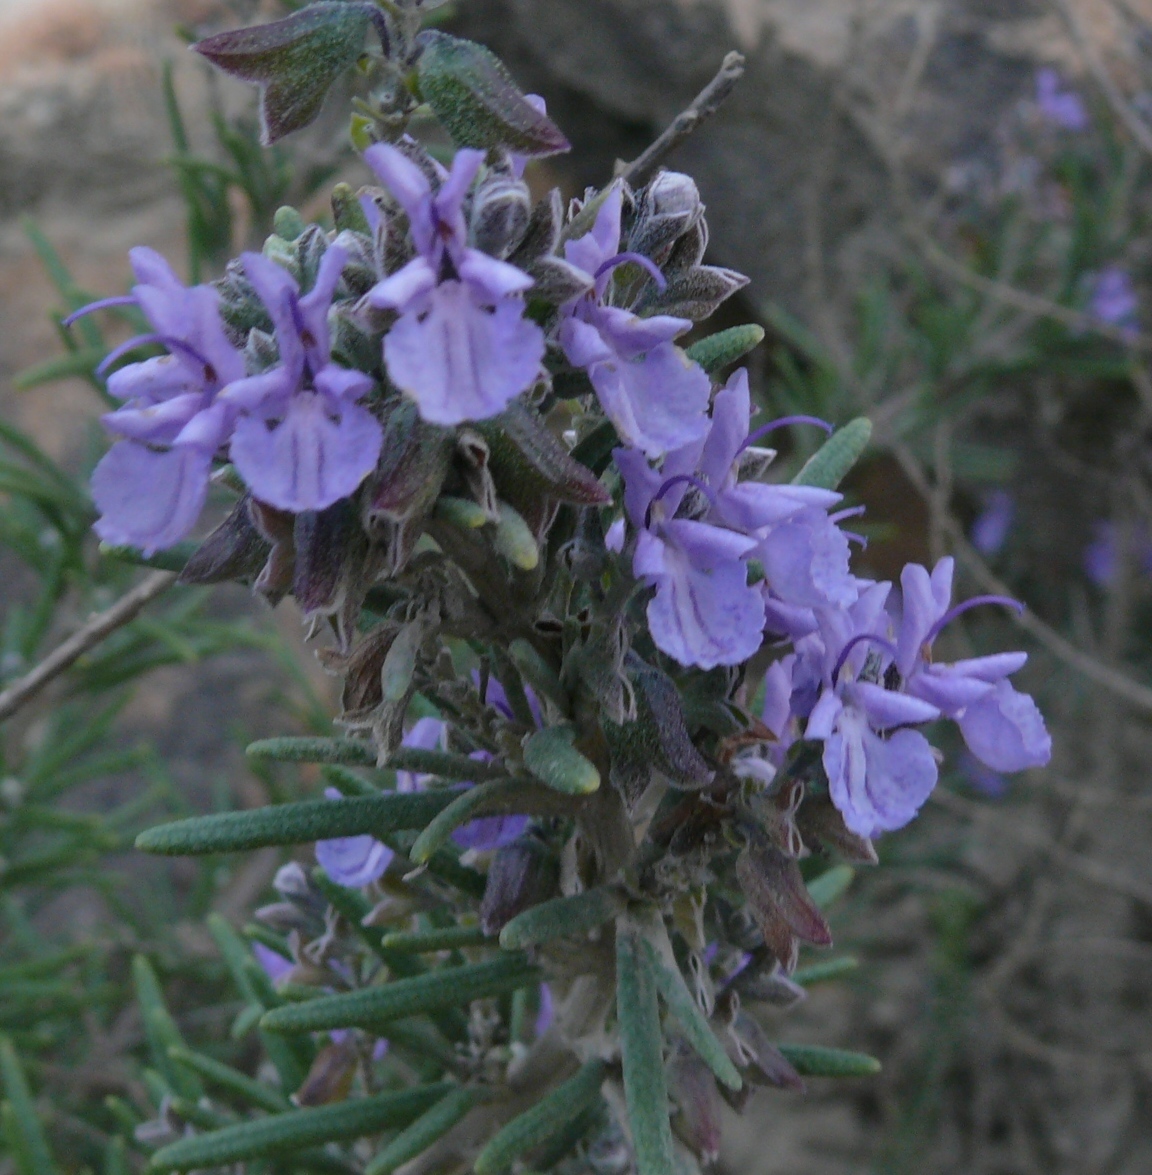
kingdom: Plantae
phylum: Tracheophyta
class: Magnoliopsida
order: Lamiales
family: Lamiaceae
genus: Salvia
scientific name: Salvia rosmarinus
